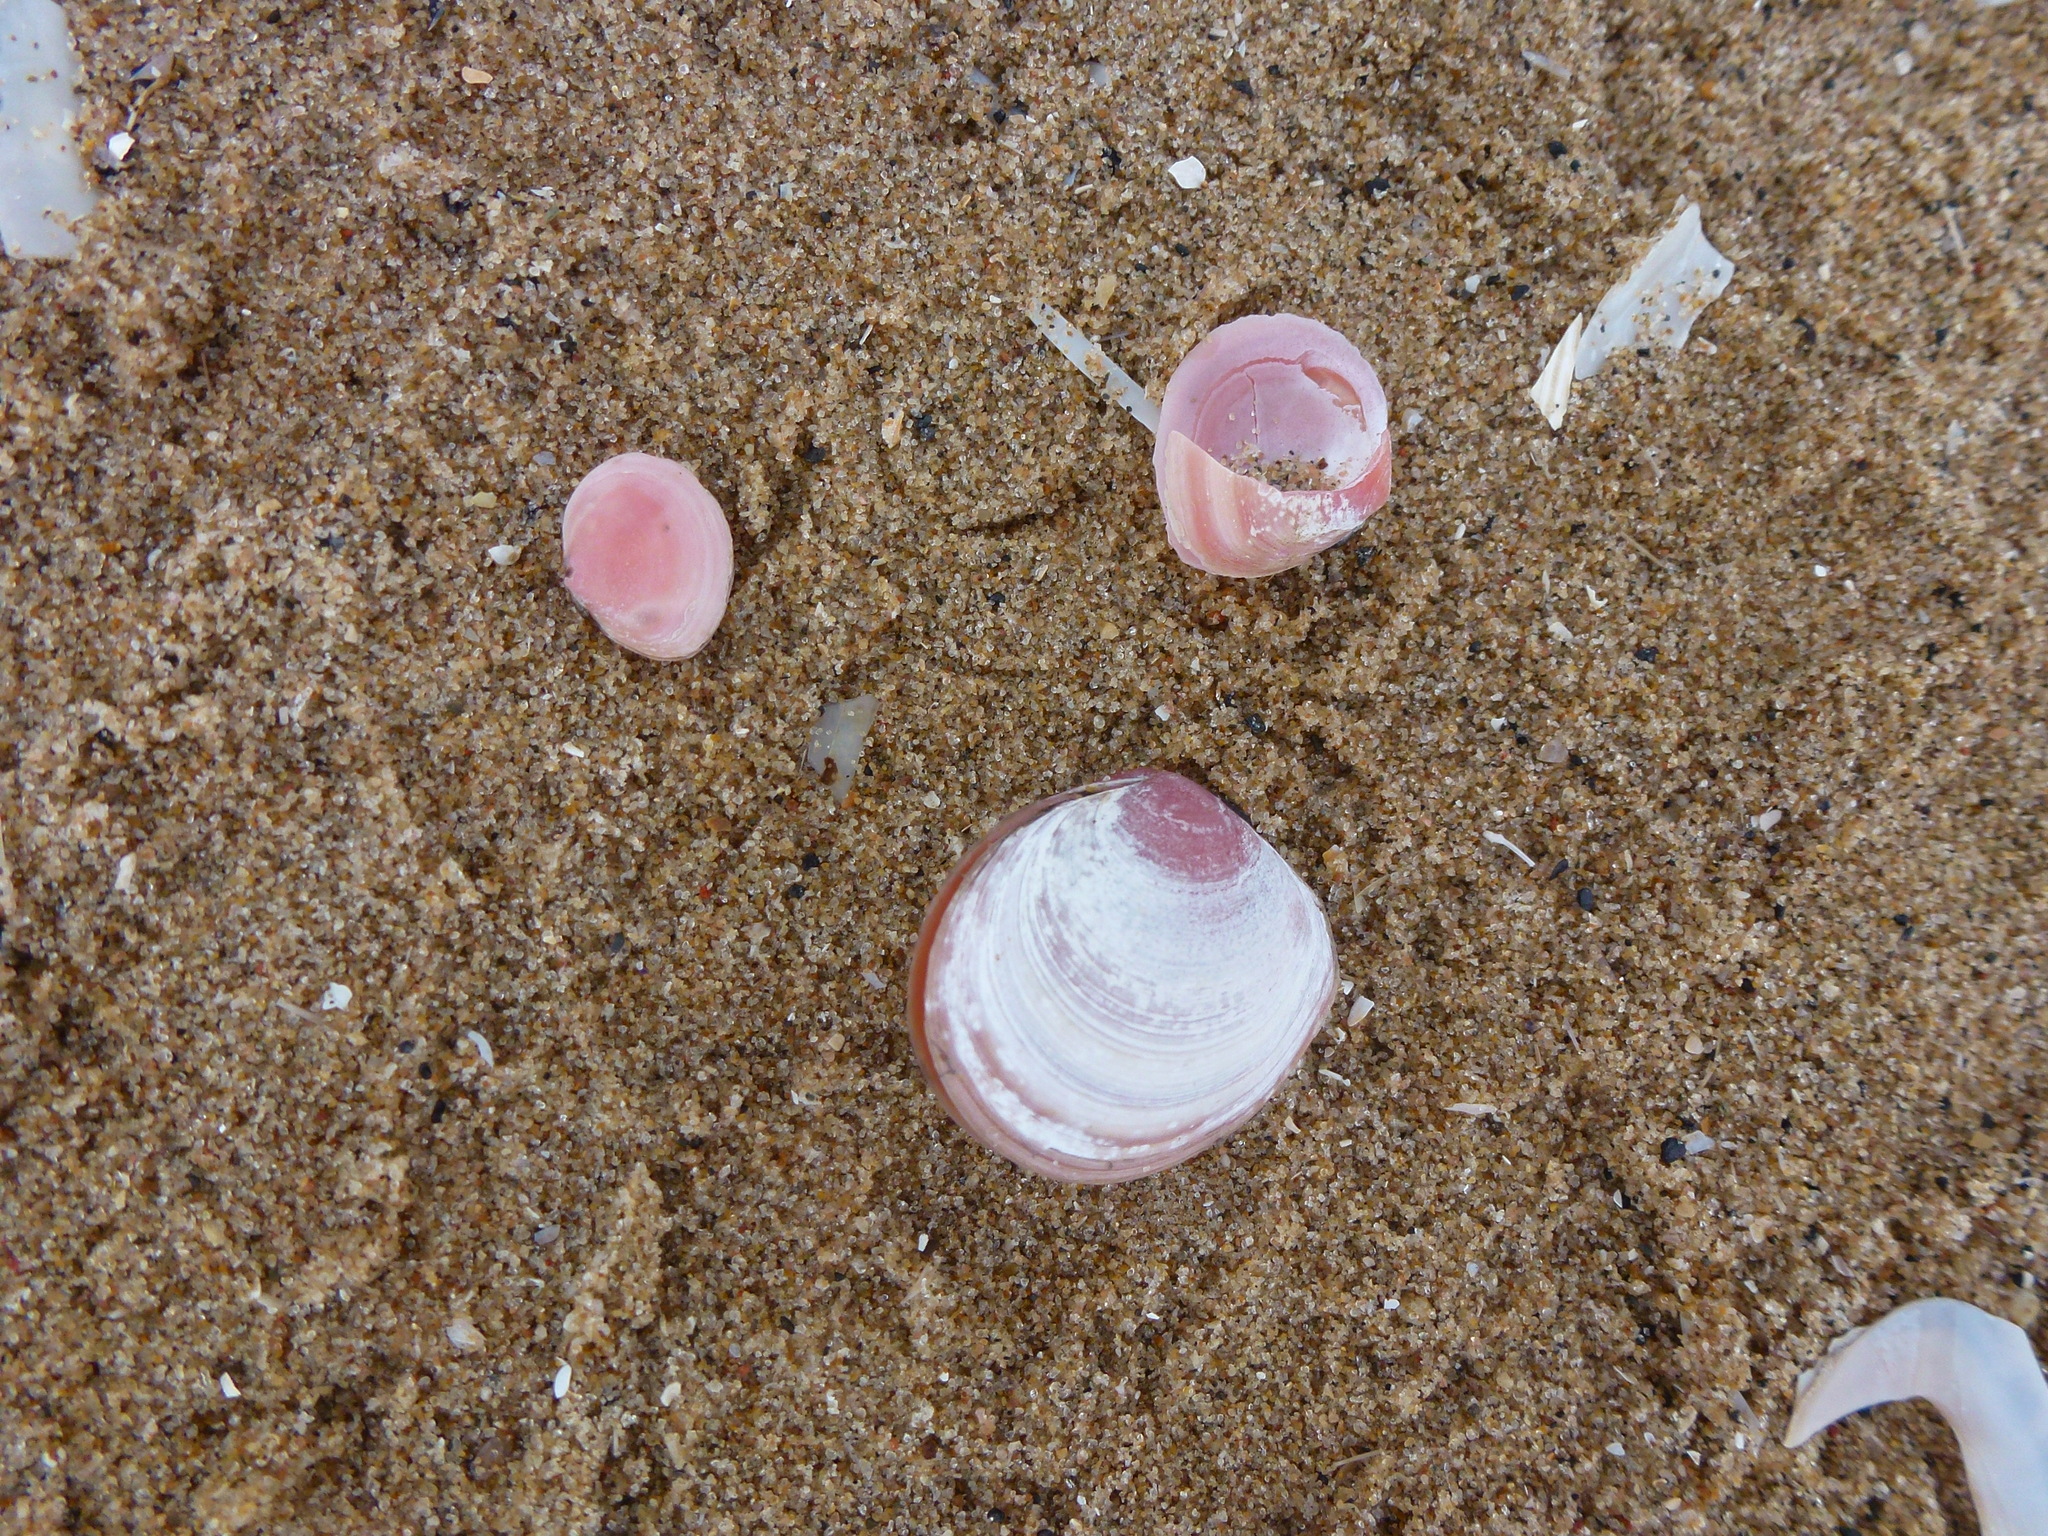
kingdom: Animalia
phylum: Mollusca
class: Bivalvia
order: Cardiida
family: Tellinidae
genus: Macoma
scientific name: Macoma balthica
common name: Baltic tellin
